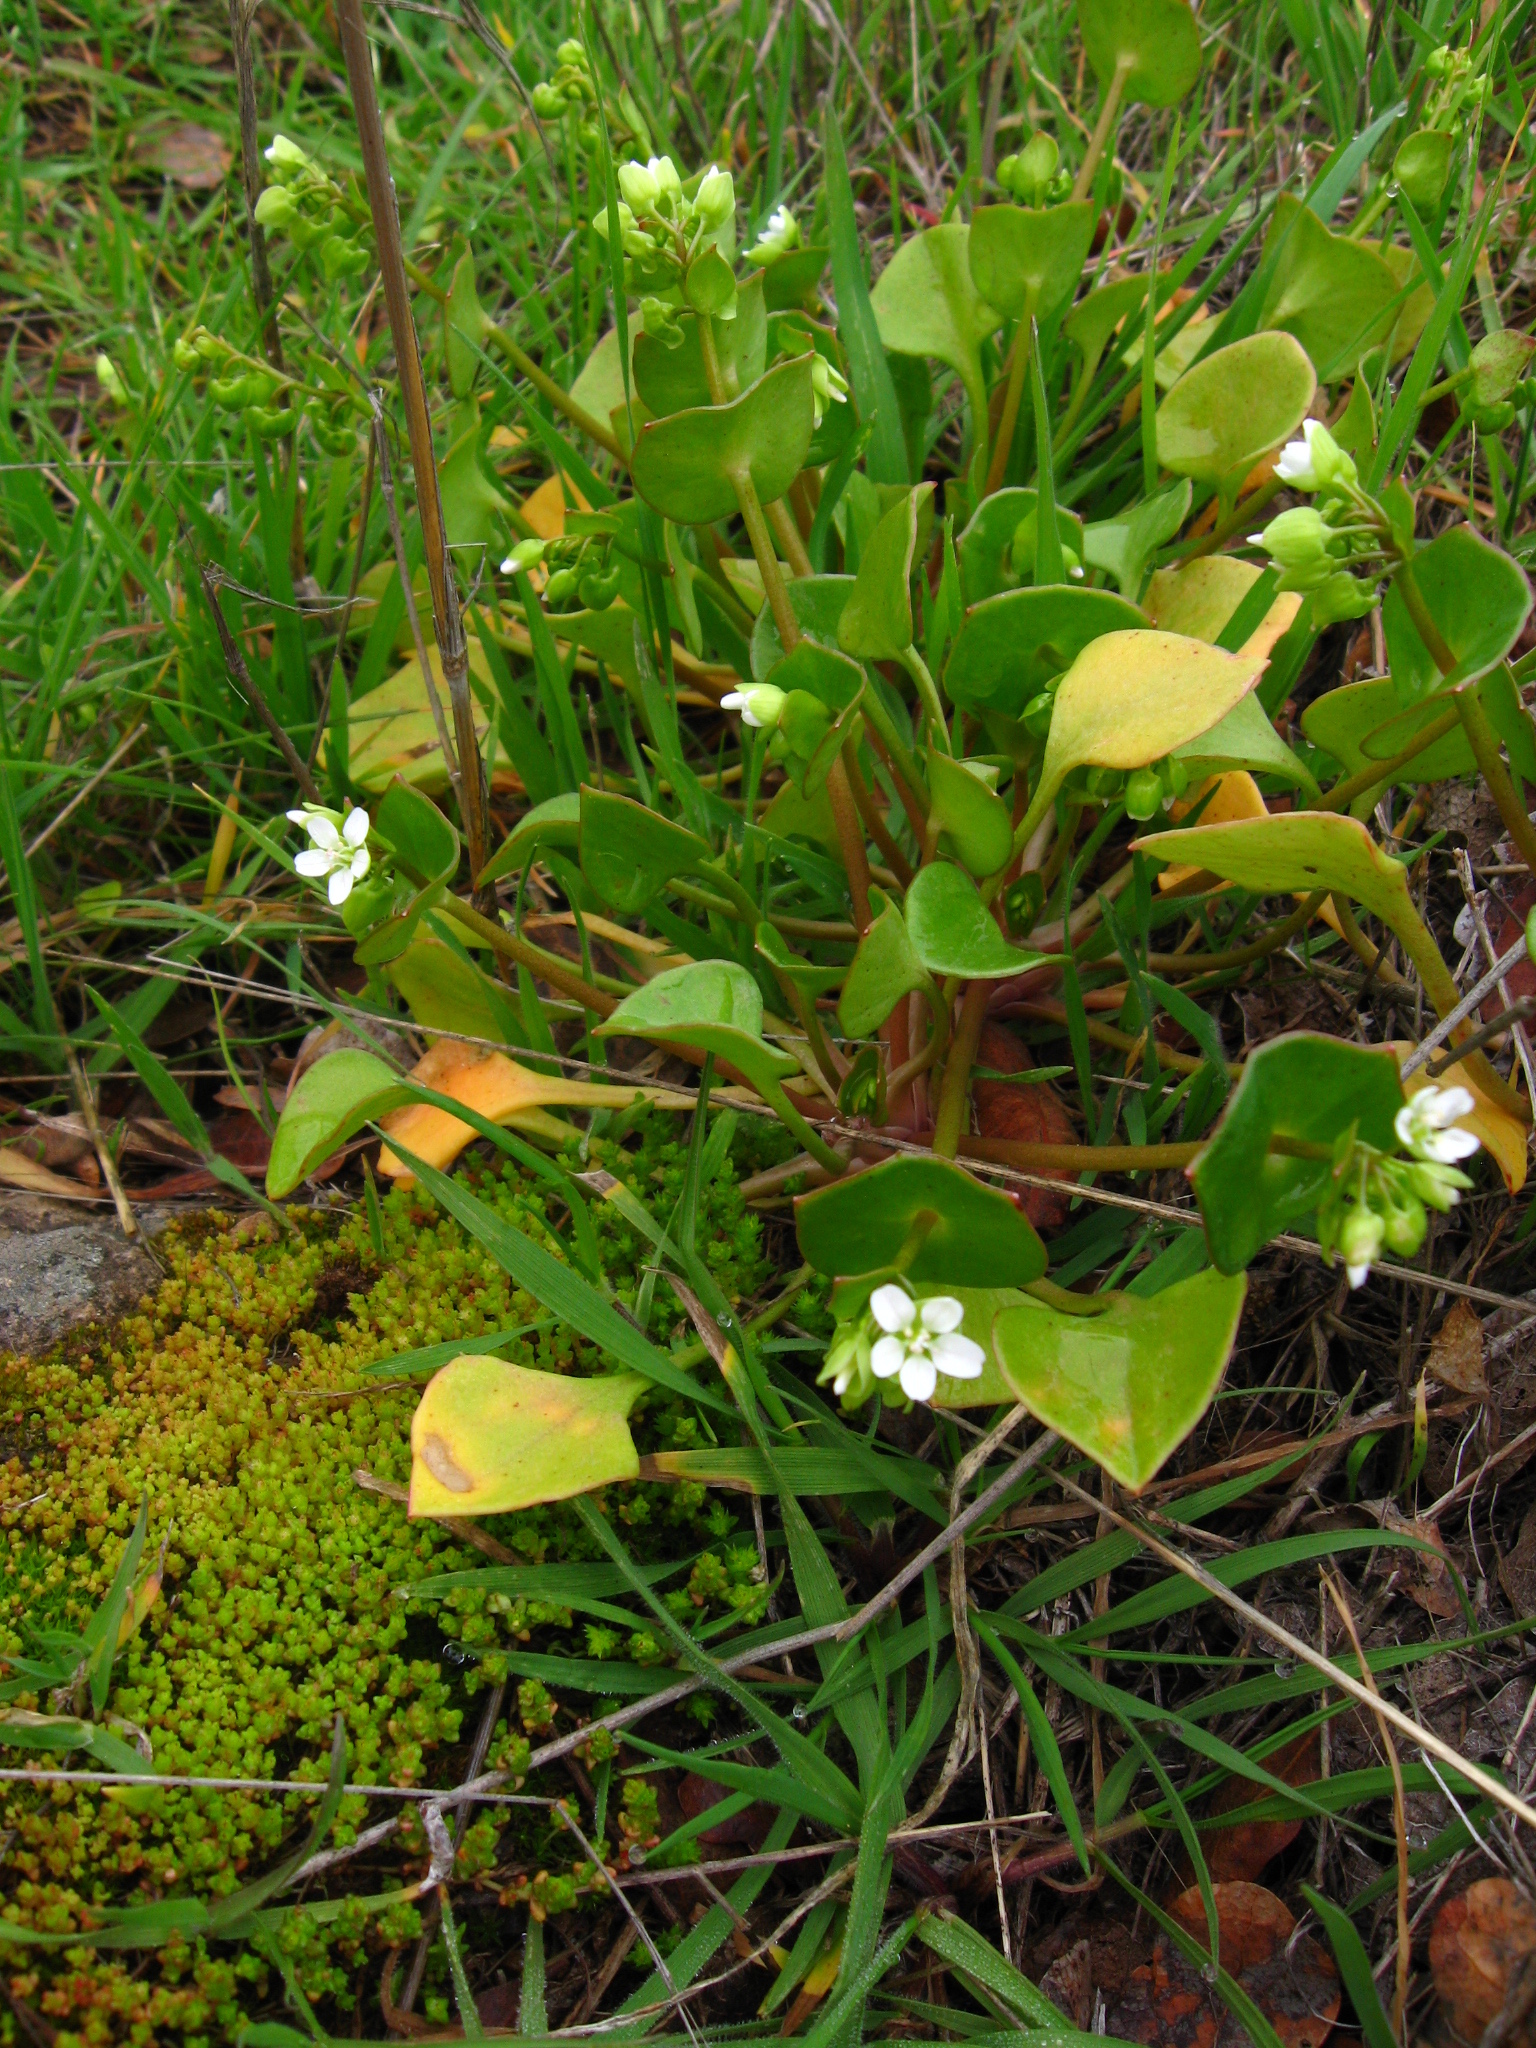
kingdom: Plantae
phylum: Tracheophyta
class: Magnoliopsida
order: Caryophyllales
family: Montiaceae
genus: Claytonia
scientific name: Claytonia perfoliata
